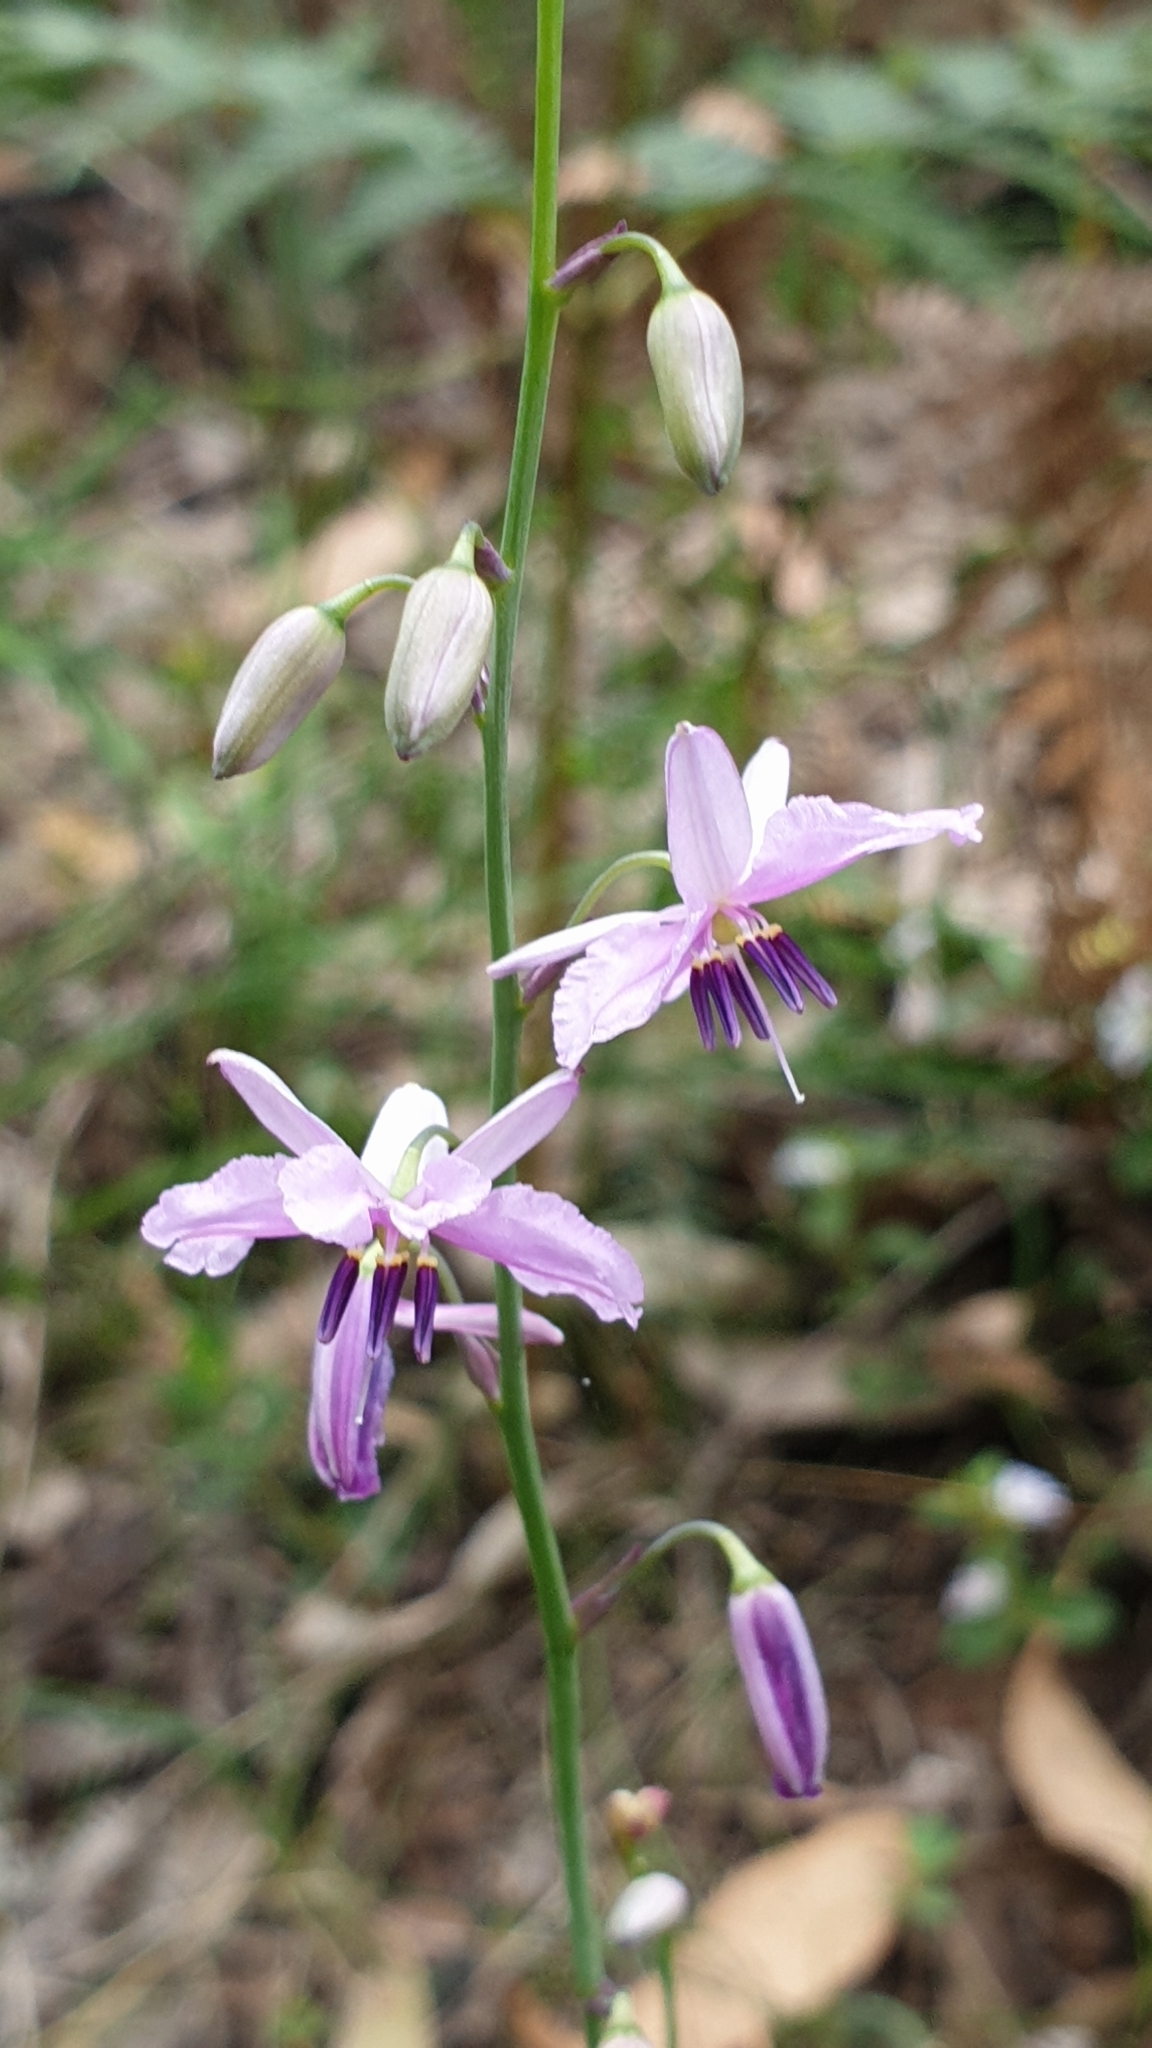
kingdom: Plantae
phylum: Tracheophyta
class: Liliopsida
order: Asparagales
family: Asparagaceae
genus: Arthropodium
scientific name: Arthropodium strictum
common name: Chocolate-lily
